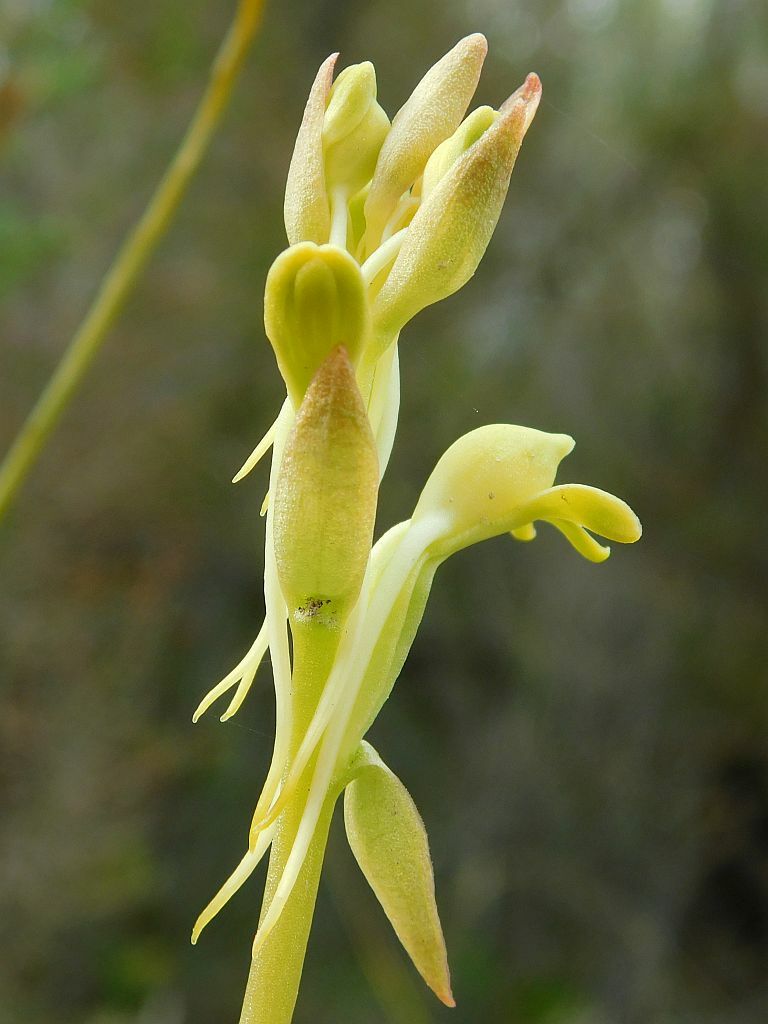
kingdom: Plantae
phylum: Tracheophyta
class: Liliopsida
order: Asparagales
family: Orchidaceae
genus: Satyrium
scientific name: Satyrium bicorne
